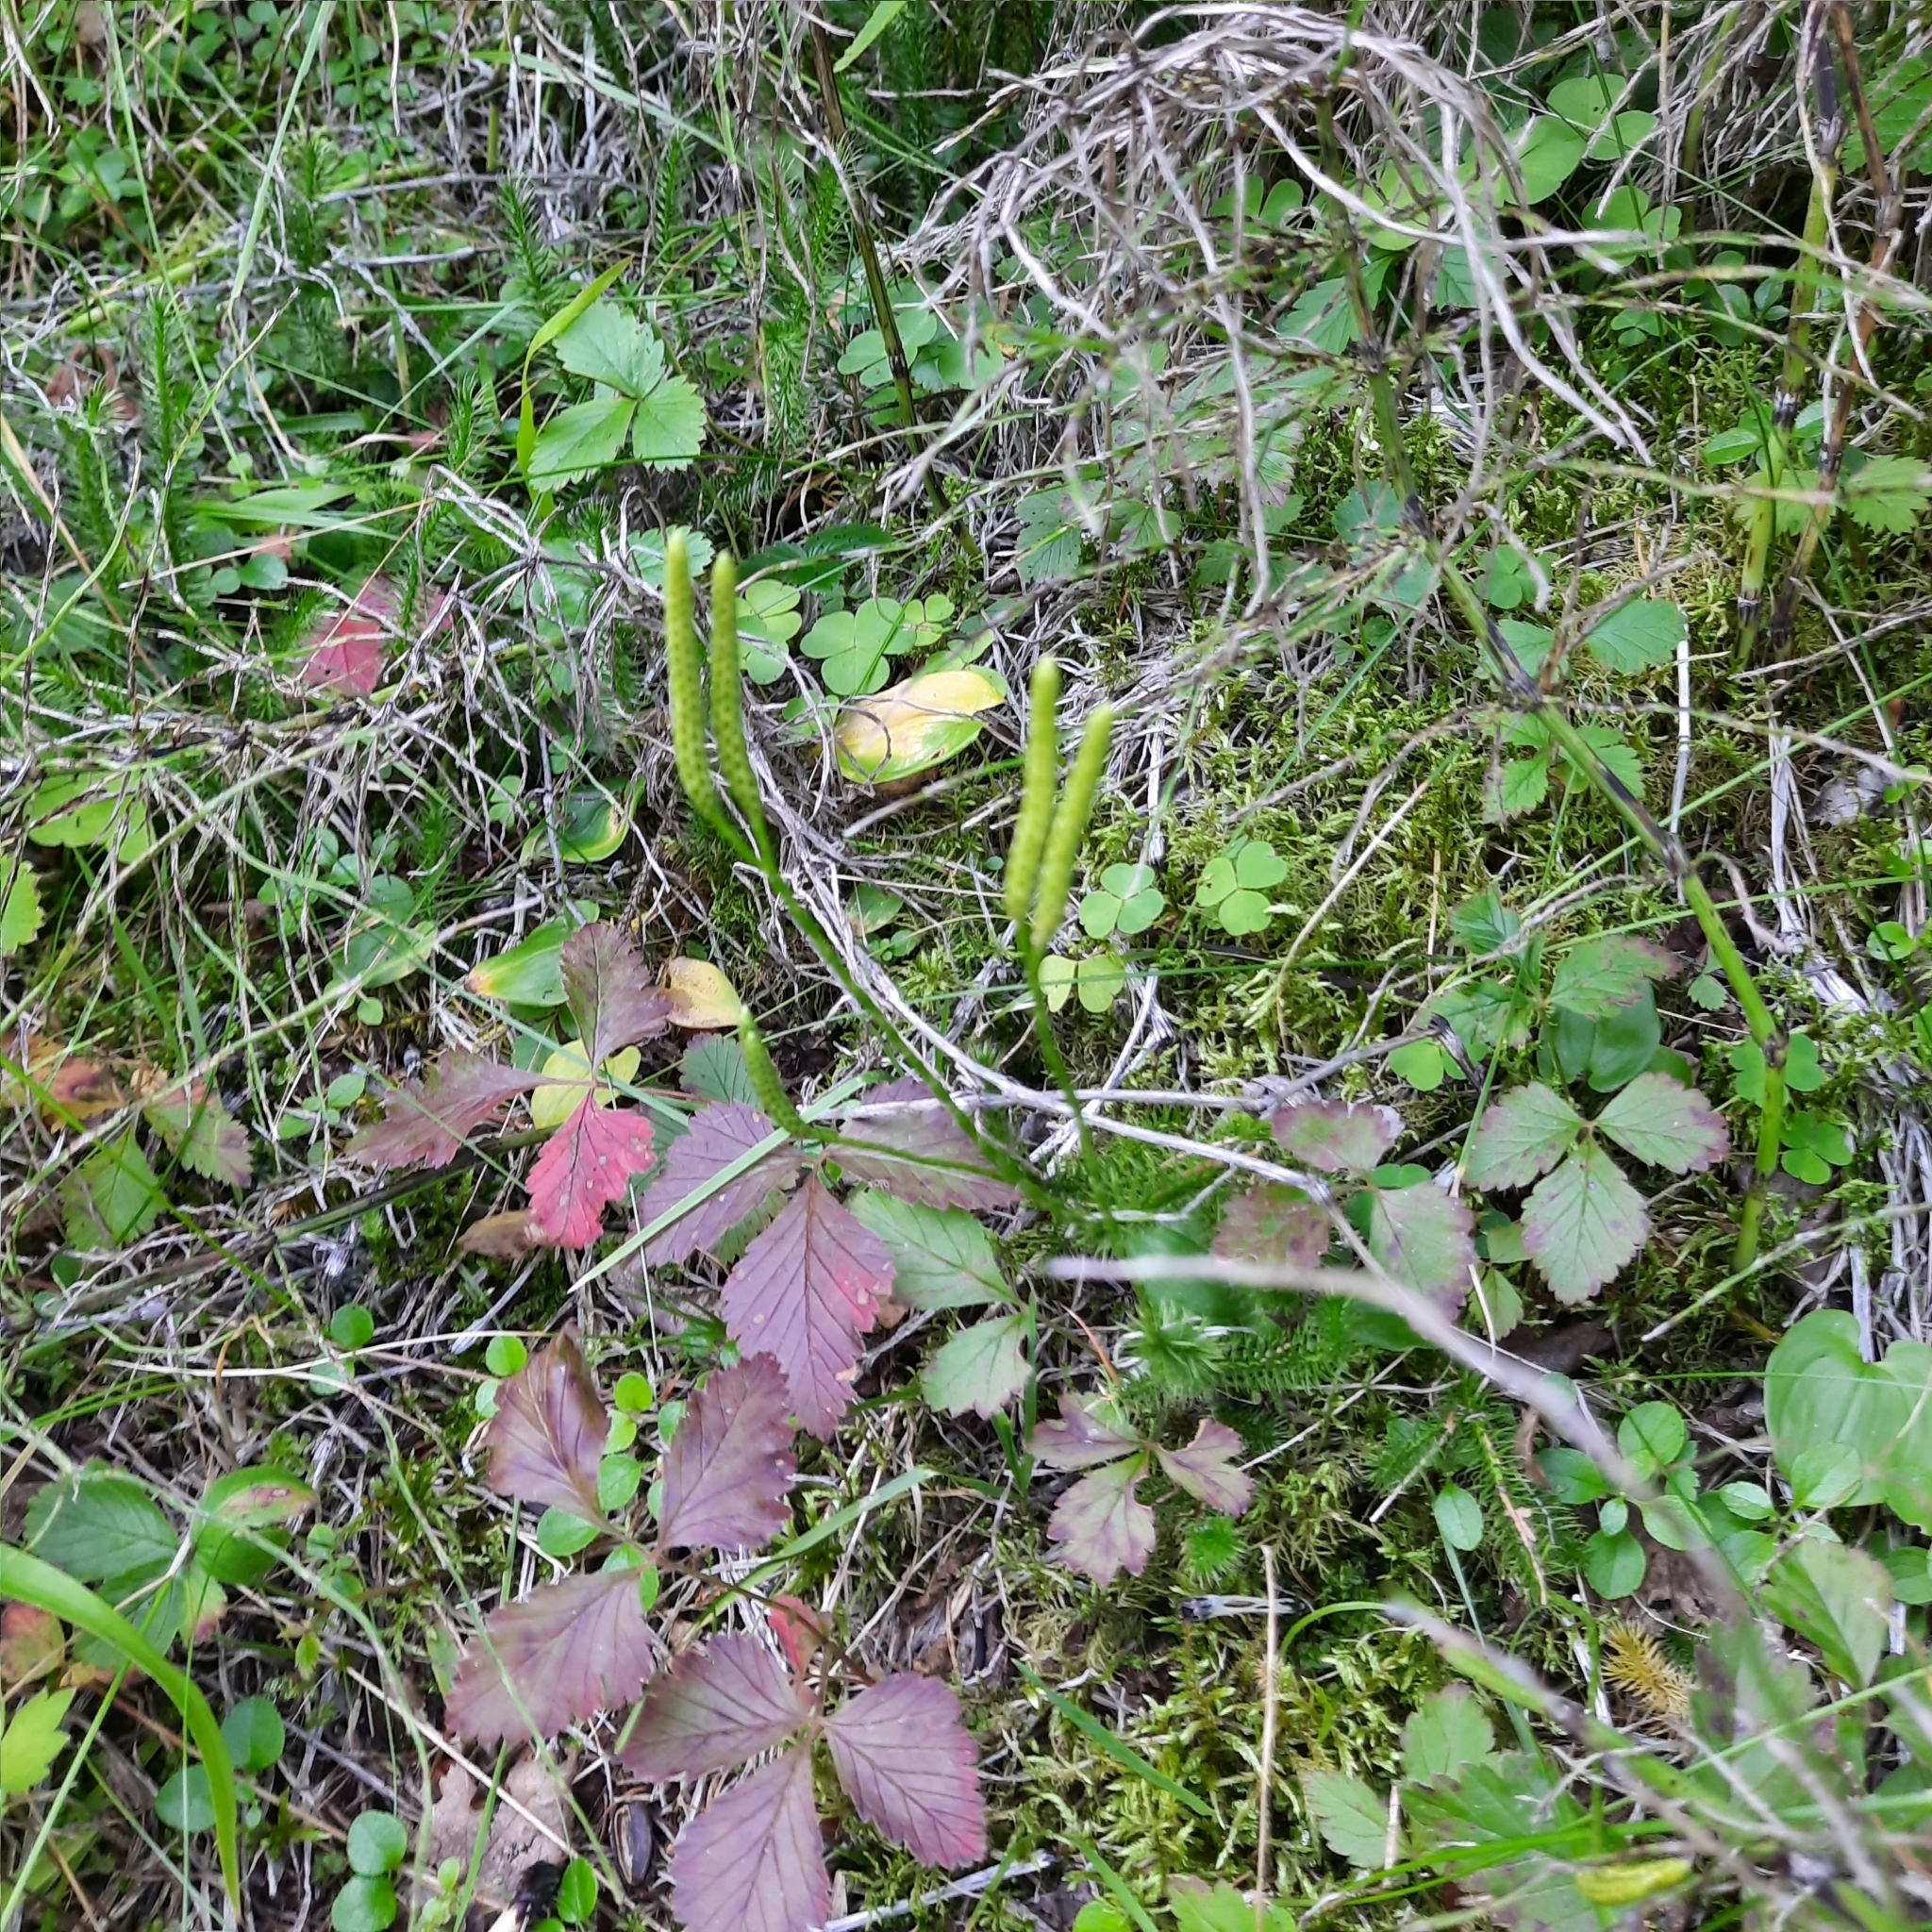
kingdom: Plantae
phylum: Tracheophyta
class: Lycopodiopsida
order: Lycopodiales
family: Lycopodiaceae
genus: Lycopodium
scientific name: Lycopodium clavatum
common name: Stag's-horn clubmoss
